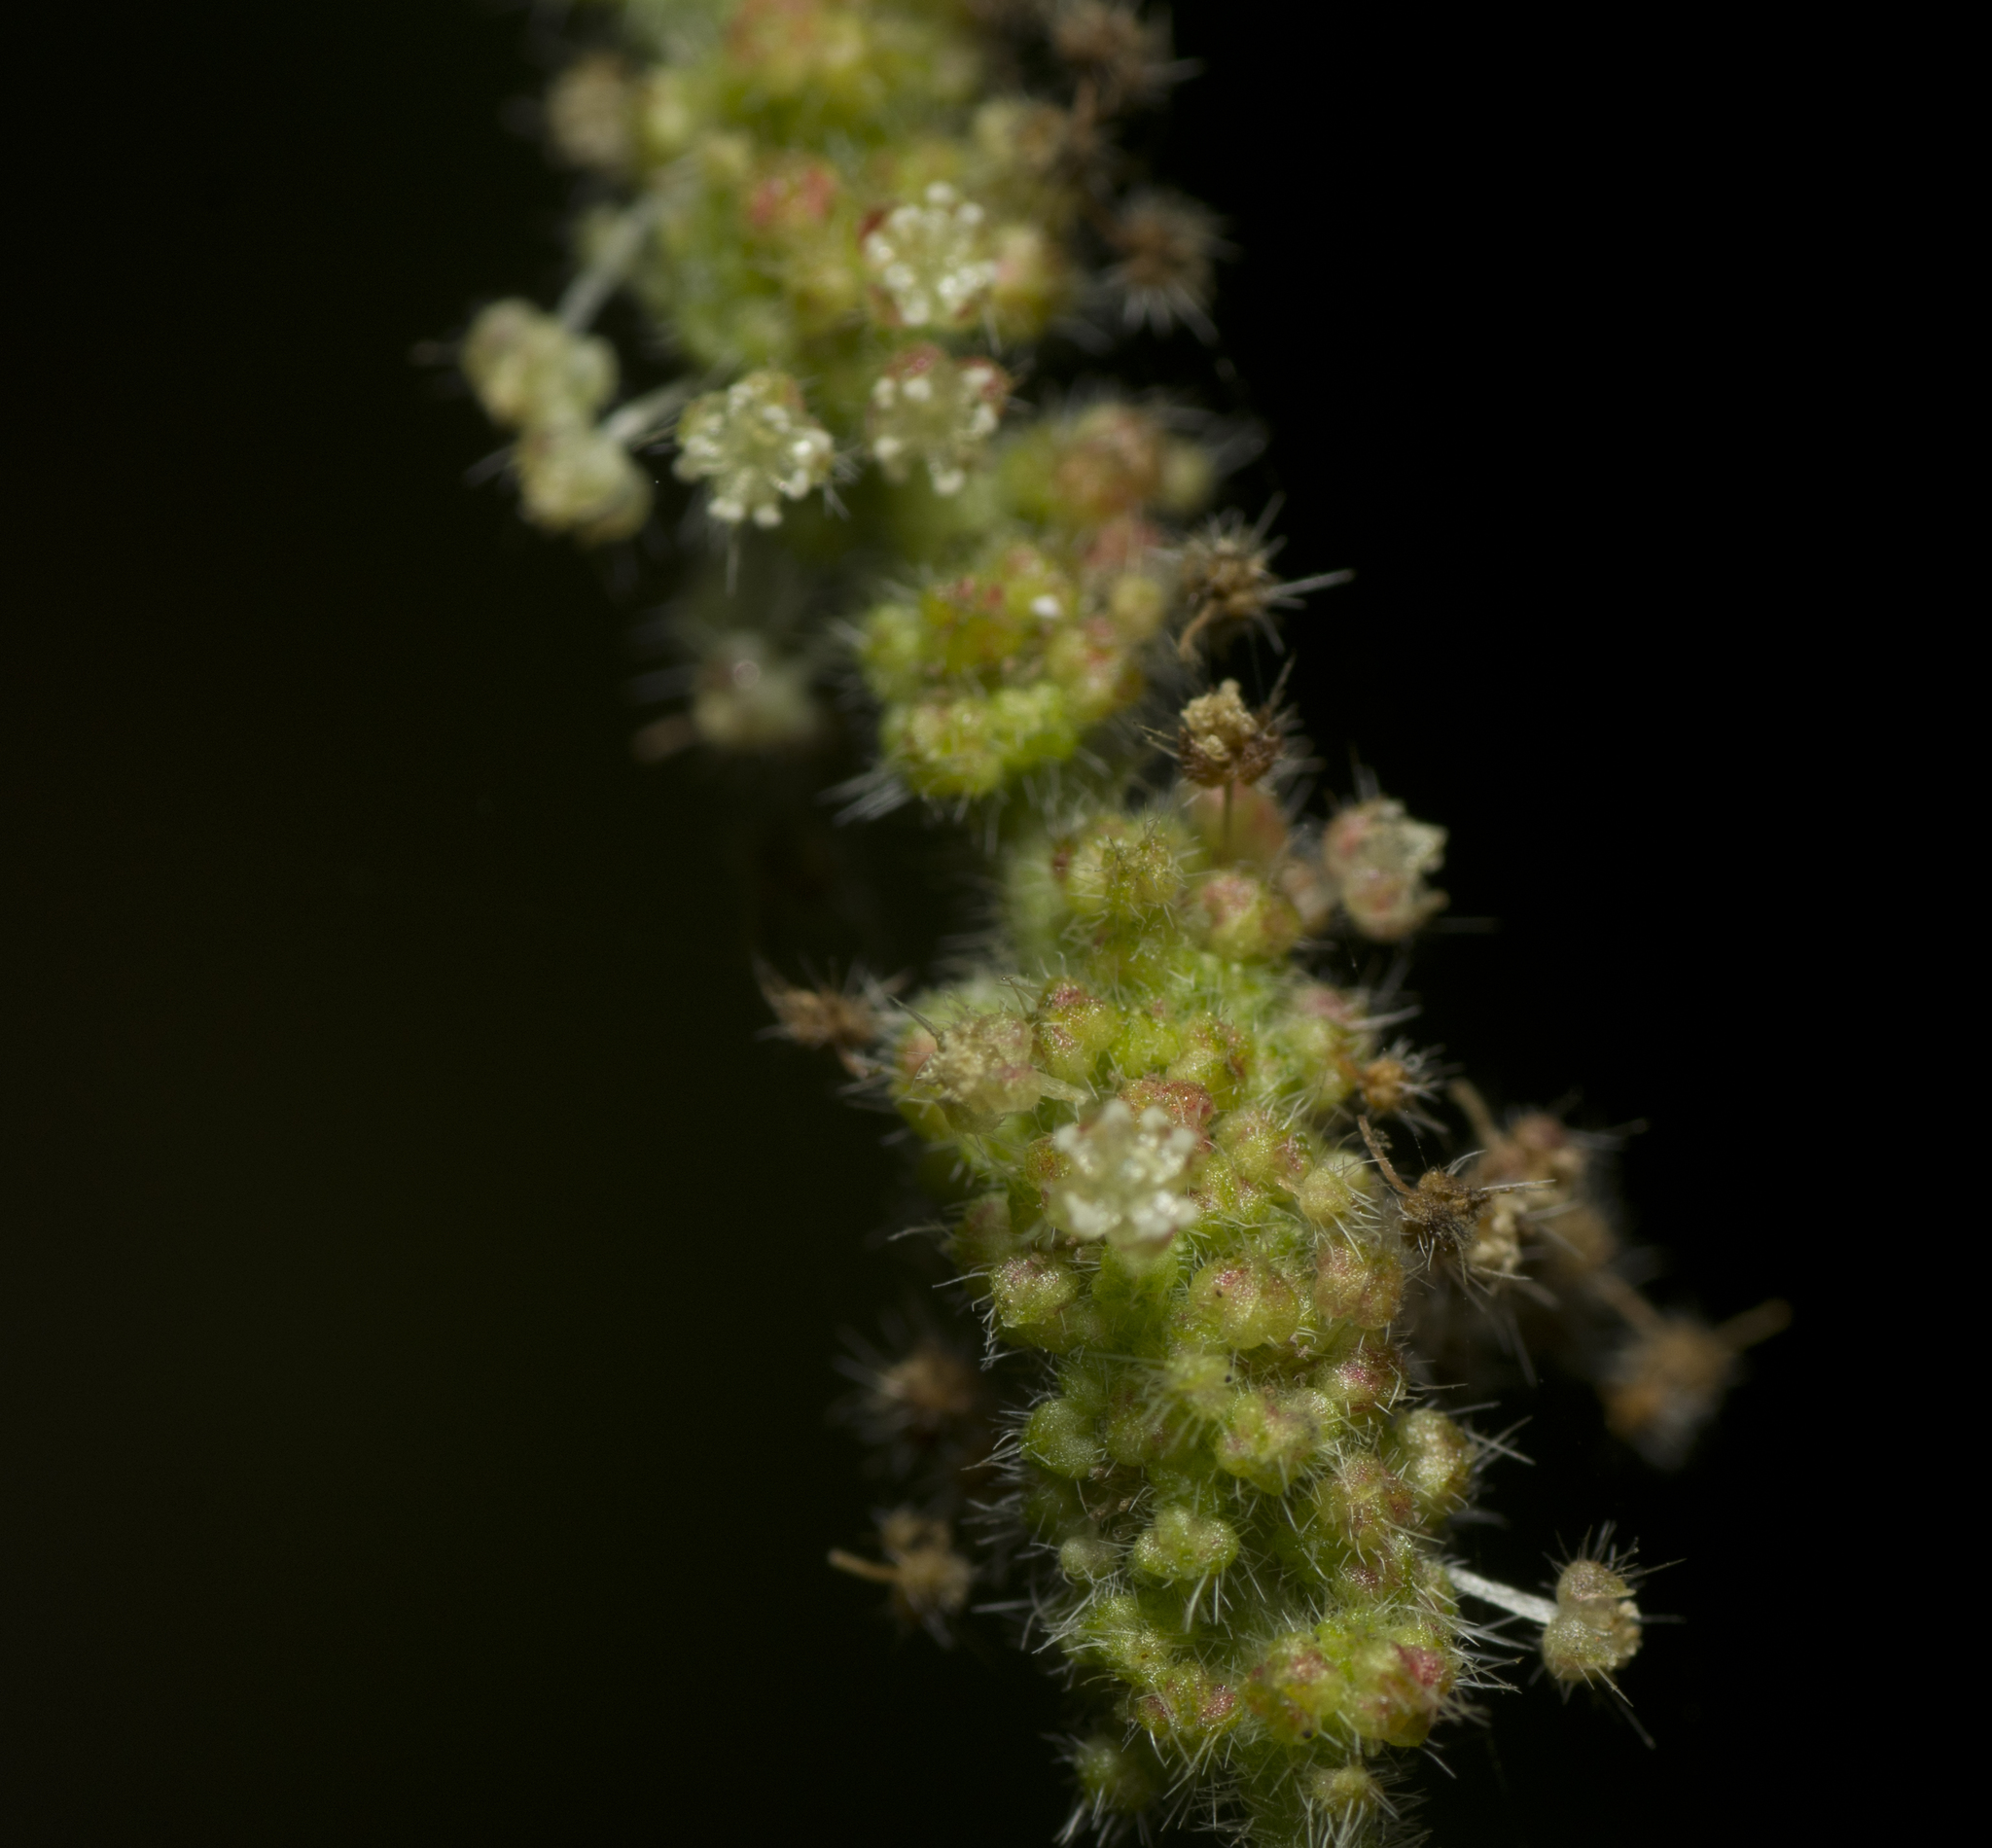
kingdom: Plantae
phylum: Tracheophyta
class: Magnoliopsida
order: Malpighiales
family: Euphorbiaceae
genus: Acalypha
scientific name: Acalypha nemorum
